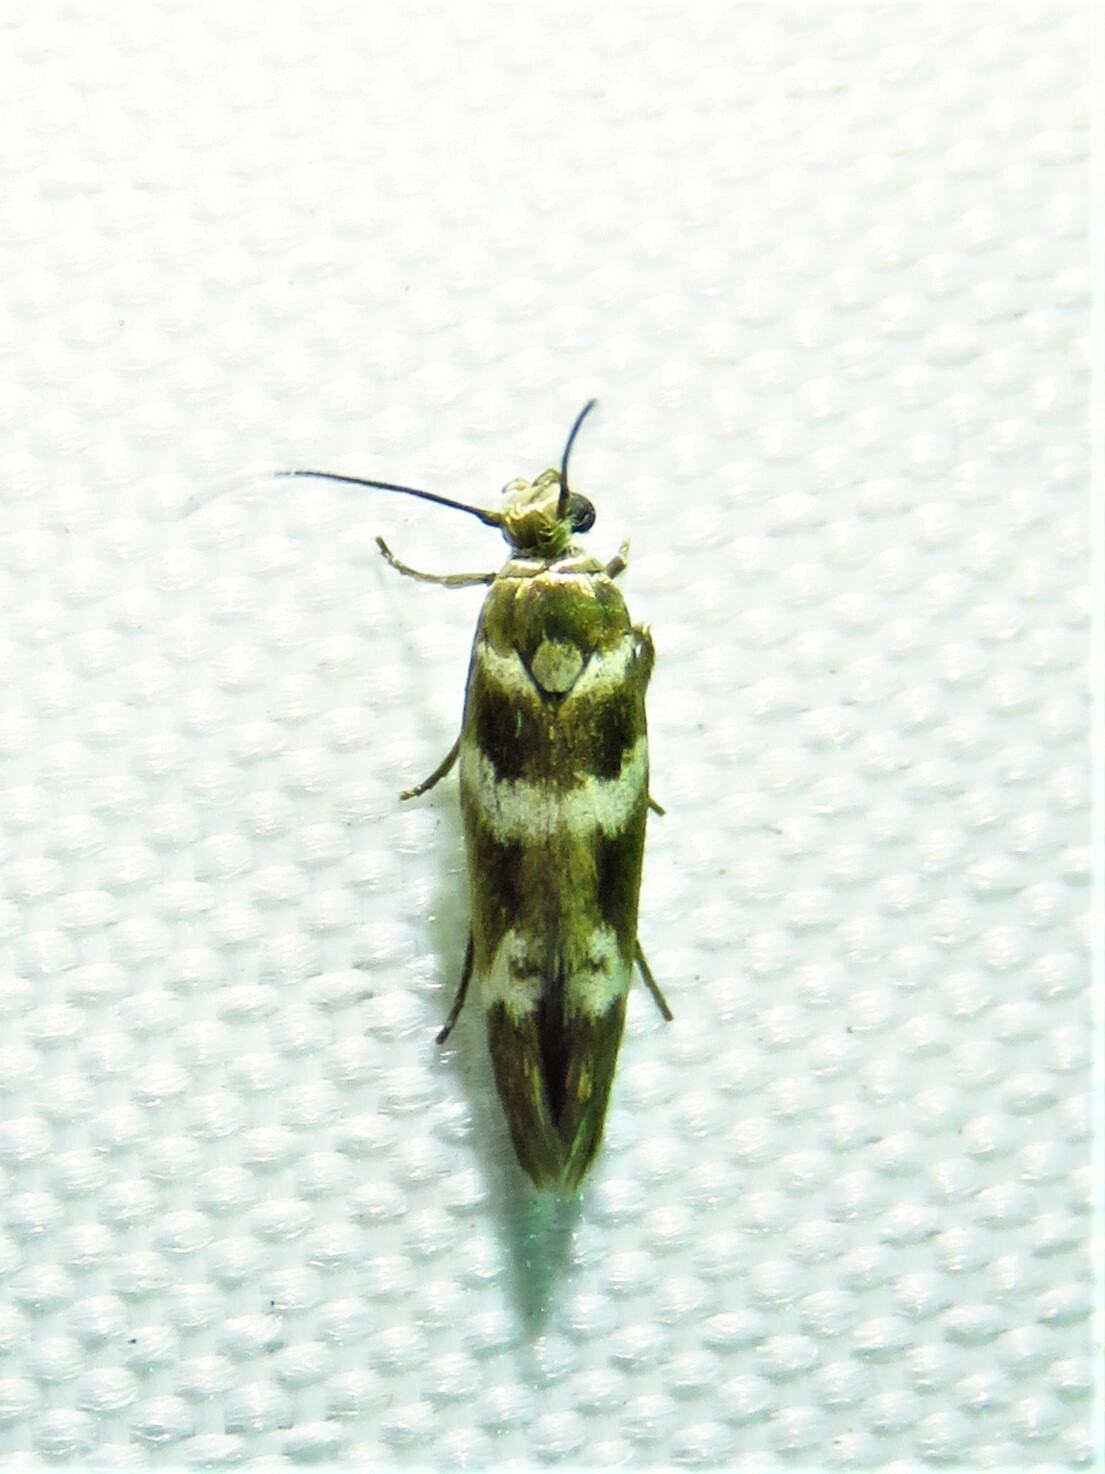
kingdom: Animalia
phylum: Arthropoda
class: Insecta
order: Lepidoptera
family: Scythrididae
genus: Scythris
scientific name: Scythris trivinctella
